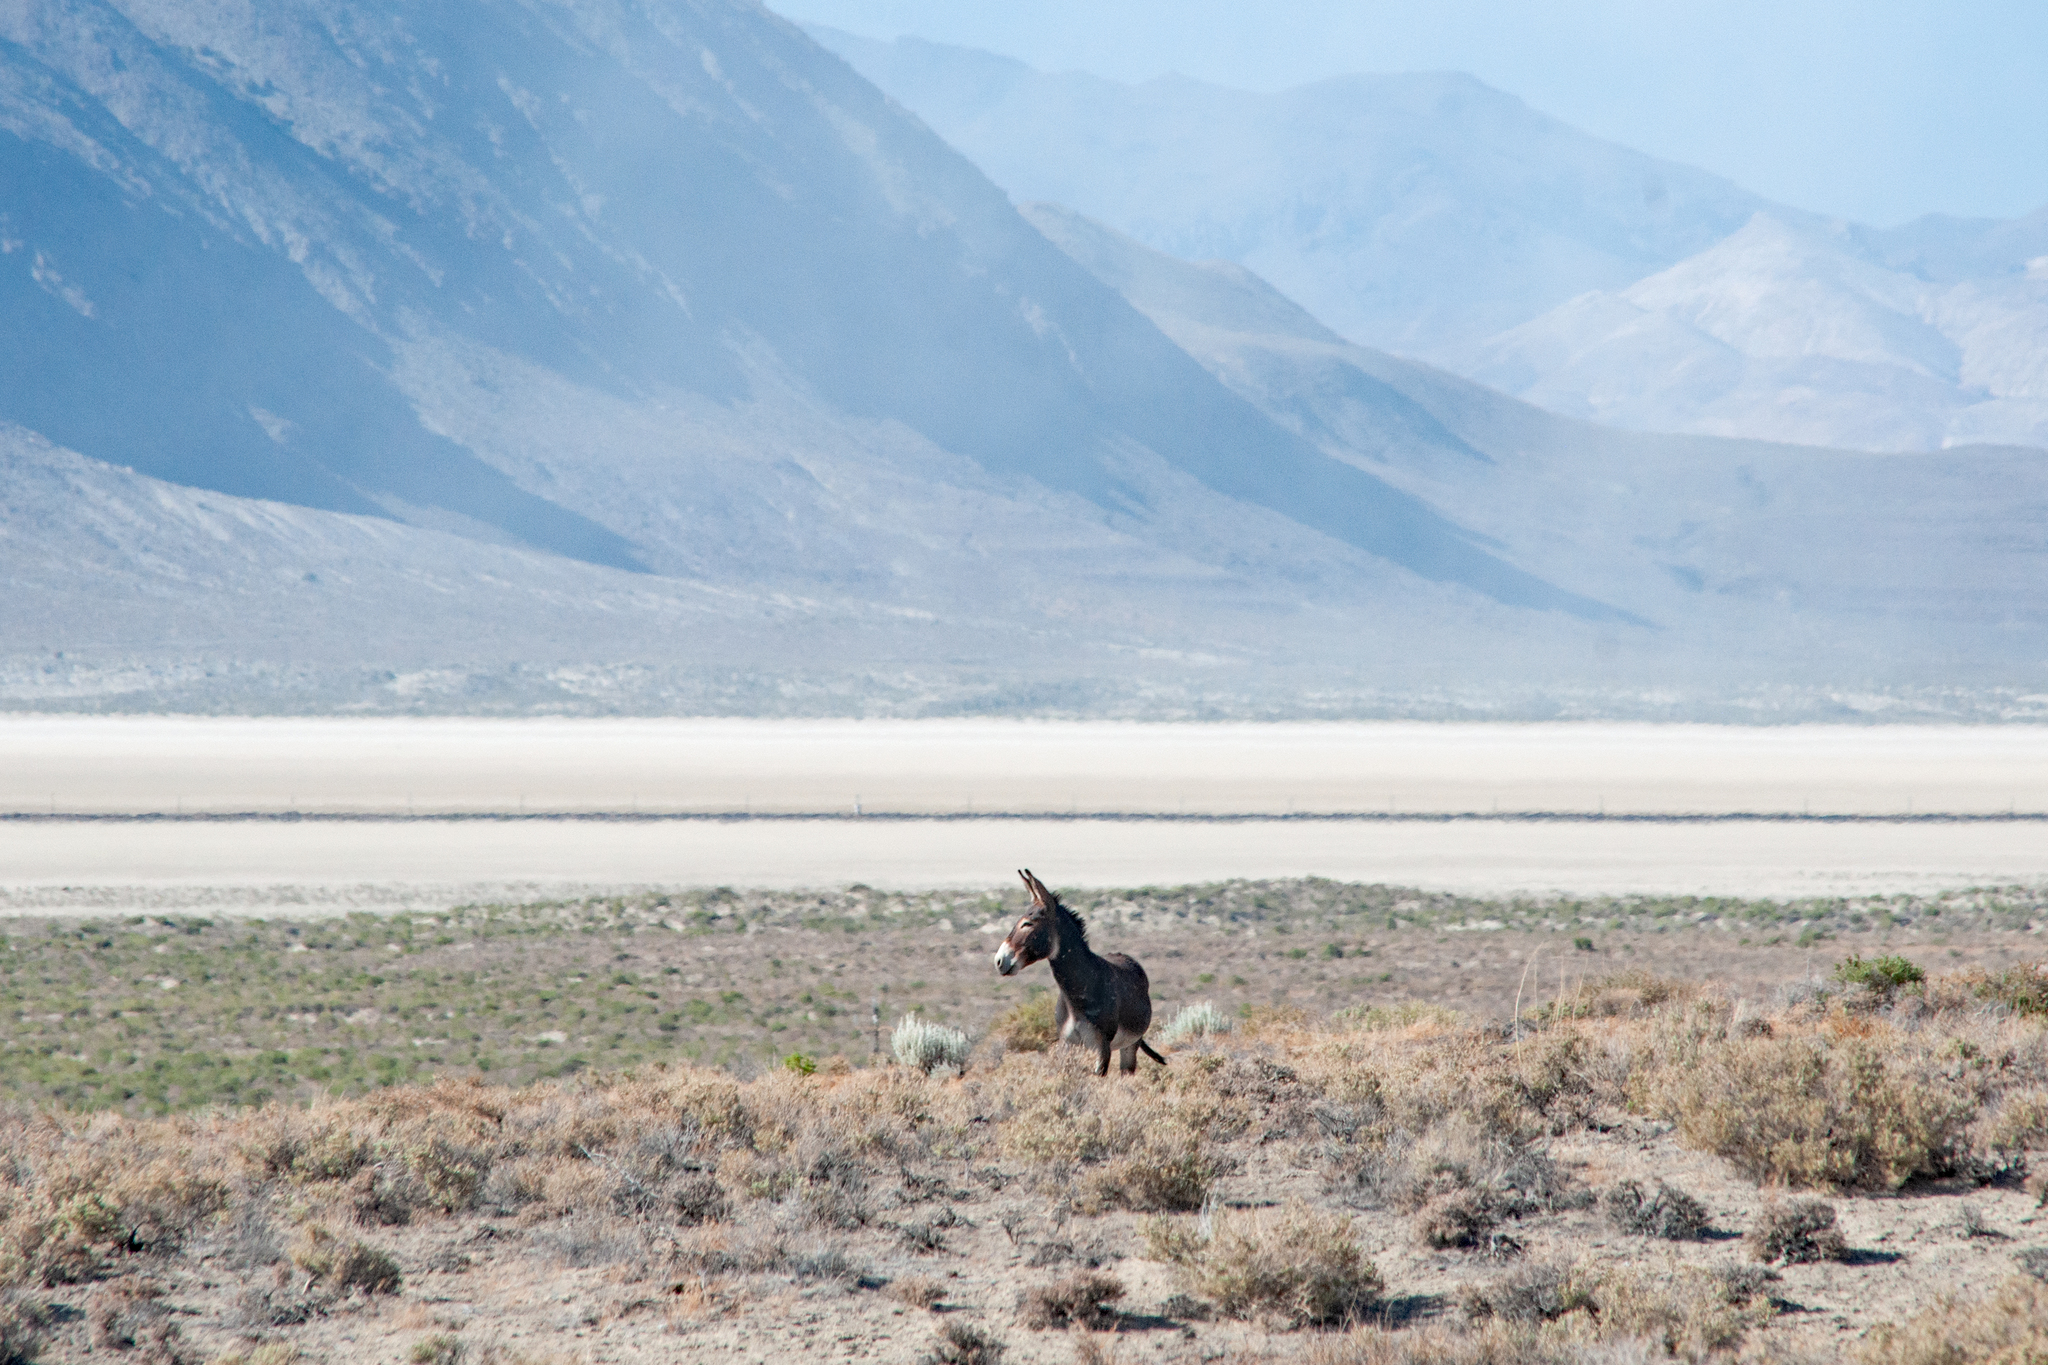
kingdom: Animalia
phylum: Chordata
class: Mammalia
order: Perissodactyla
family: Equidae
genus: Equus
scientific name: Equus asinus
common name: Ass
